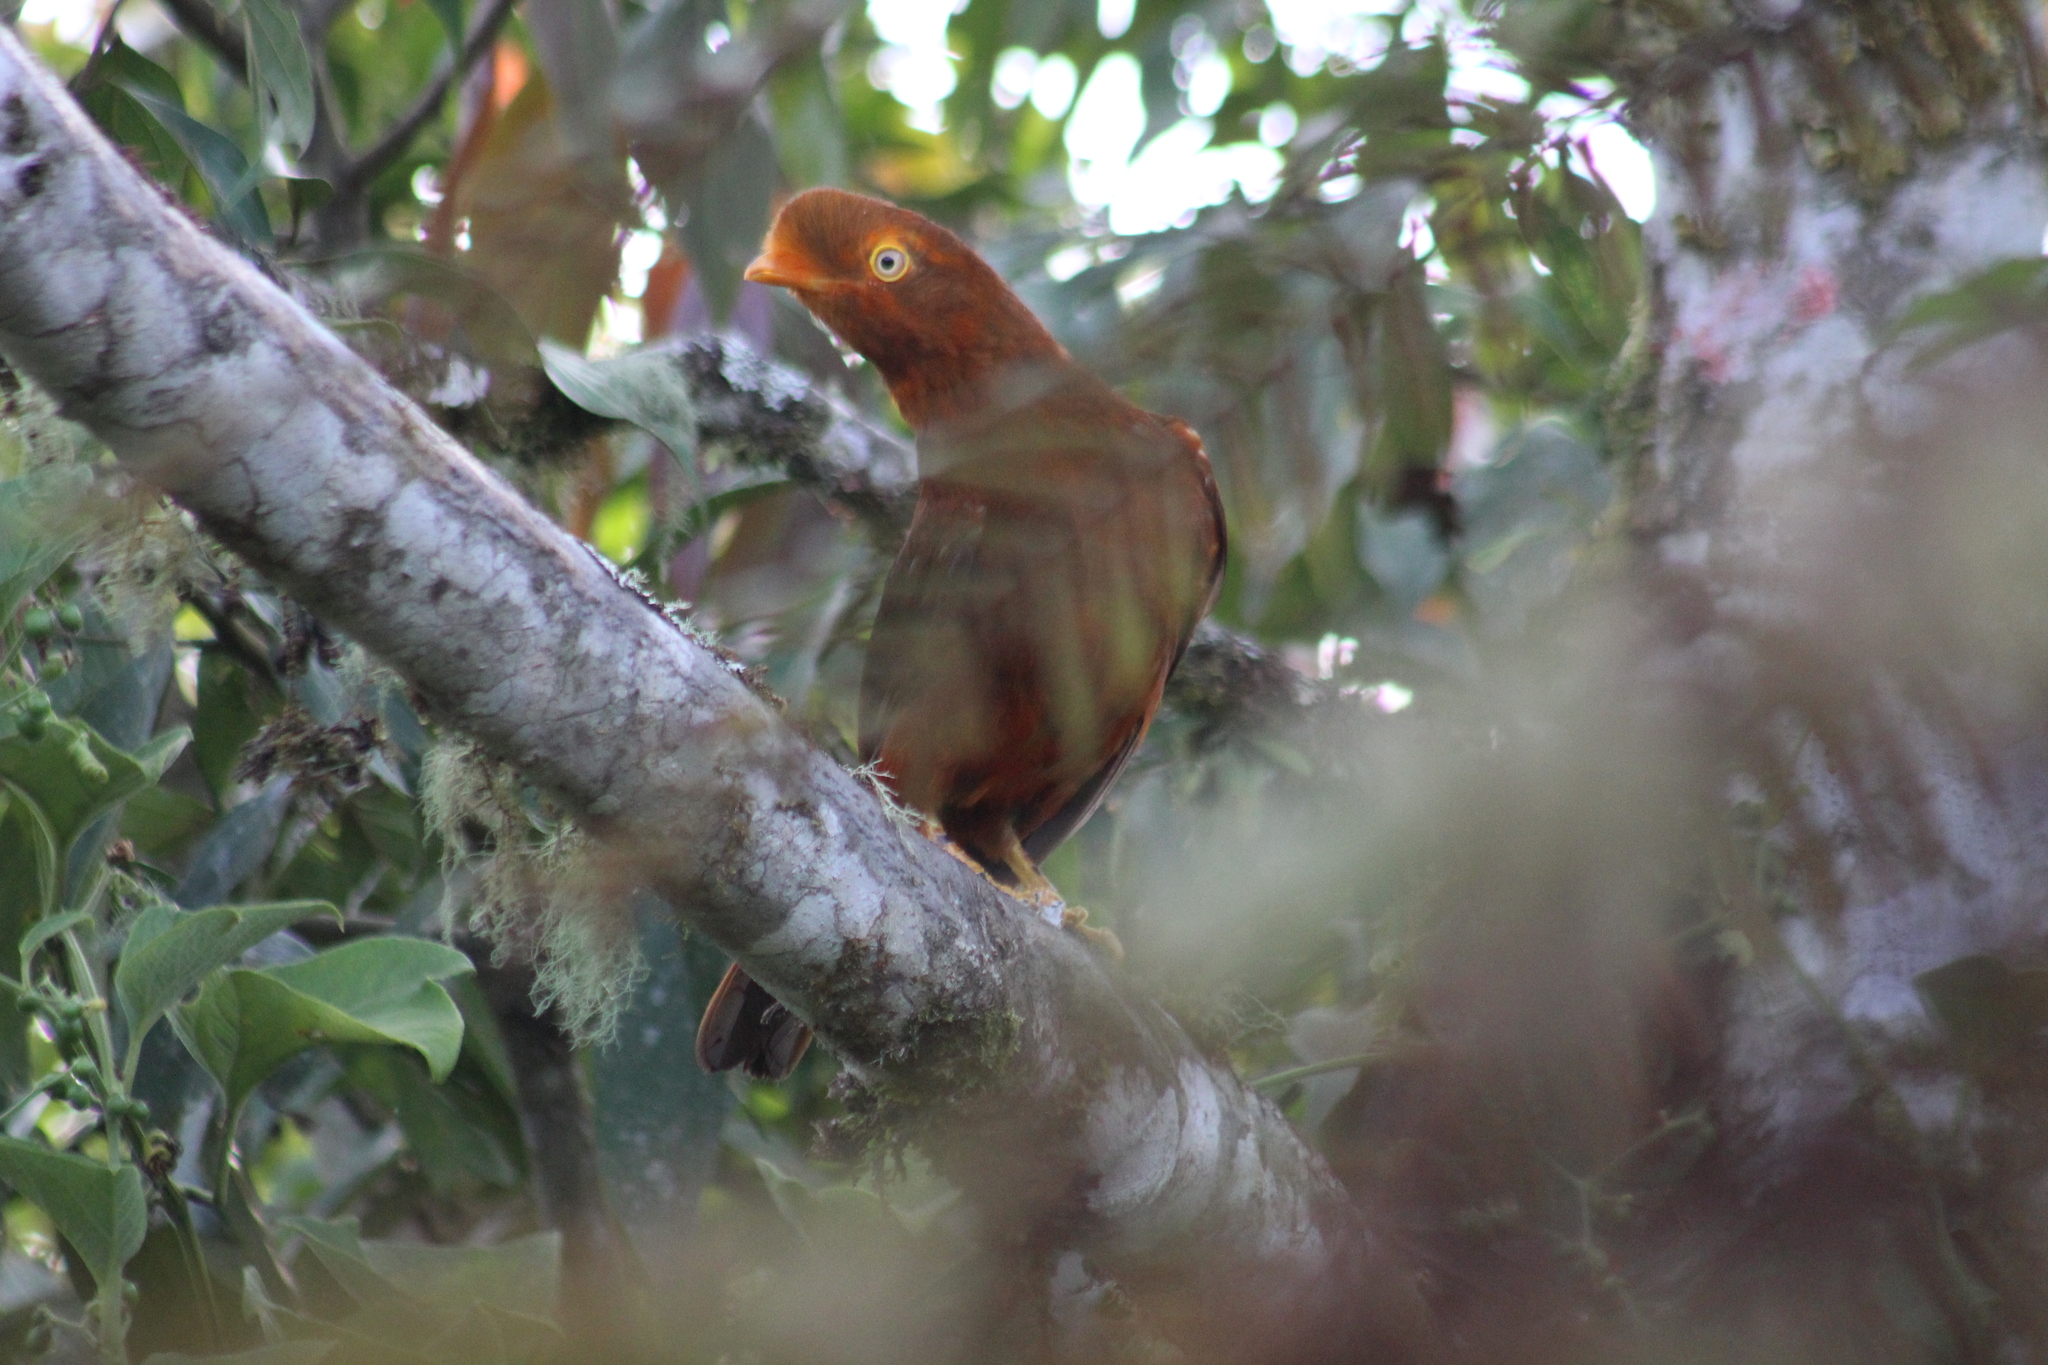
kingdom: Animalia
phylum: Chordata
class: Aves
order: Passeriformes
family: Cotingidae
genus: Rupicola
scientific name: Rupicola peruvianus
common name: Andean cock-of-the-rock
